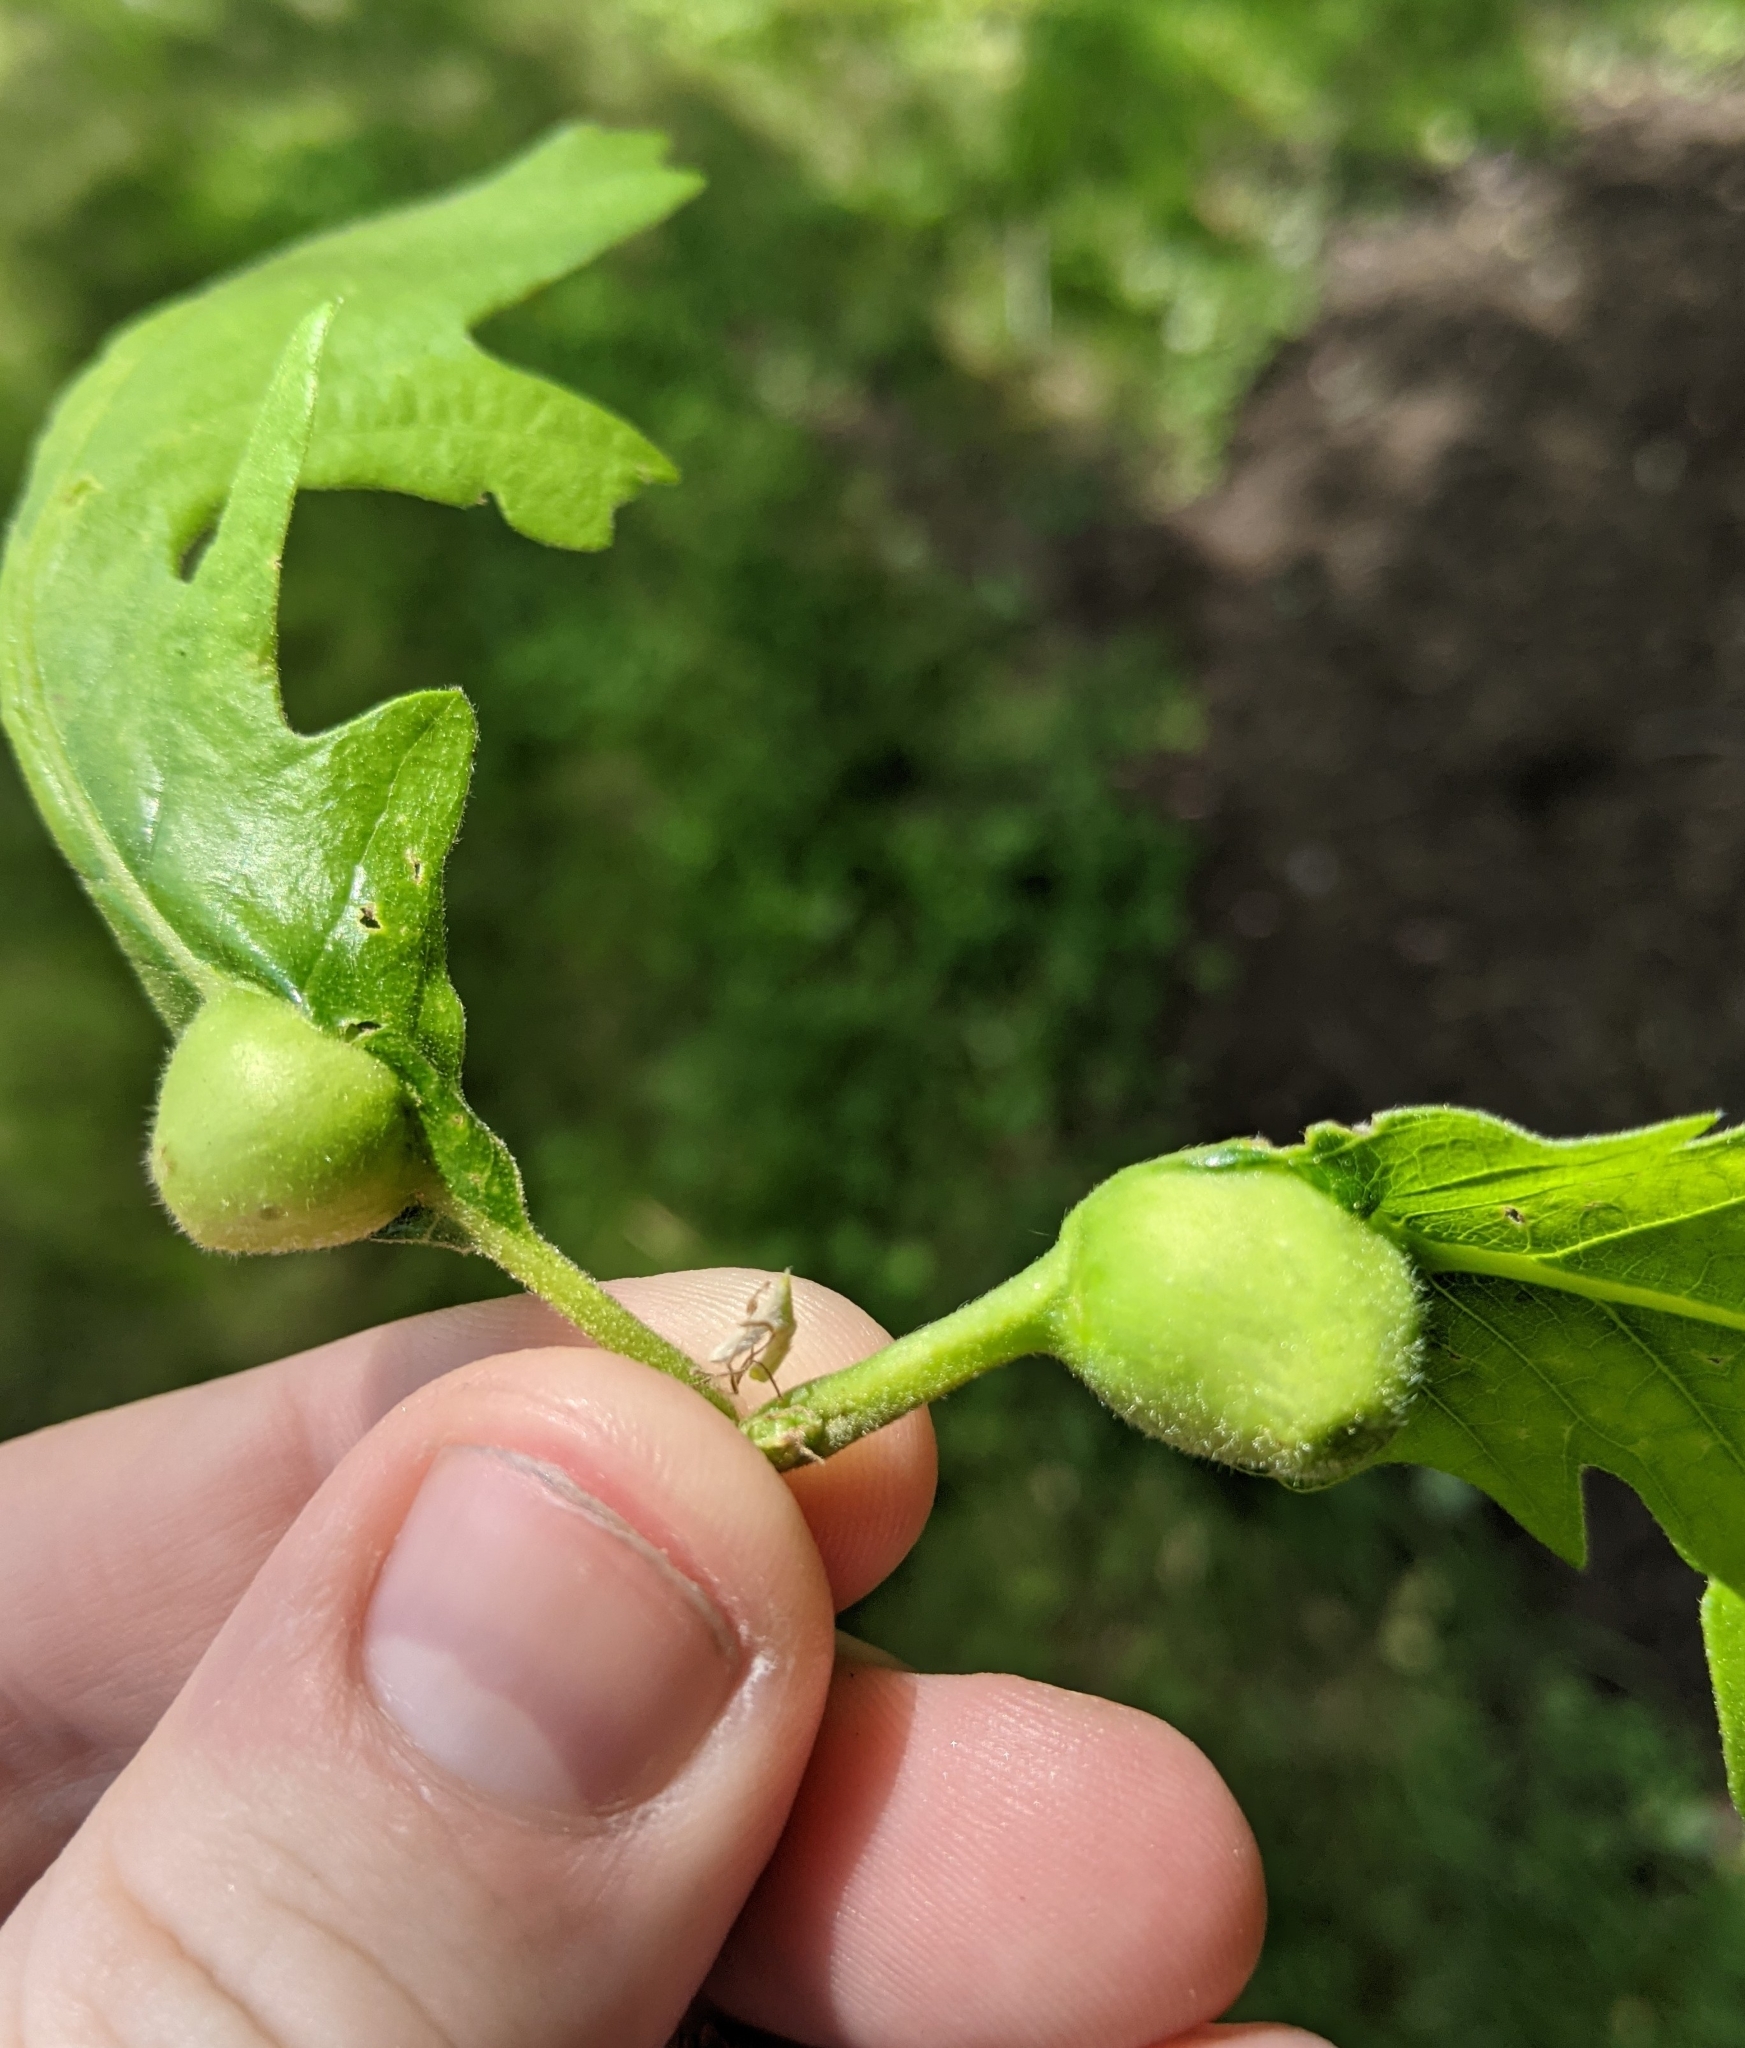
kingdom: Animalia
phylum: Arthropoda
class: Insecta
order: Hymenoptera
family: Cynipidae
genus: Andricus
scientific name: Andricus
